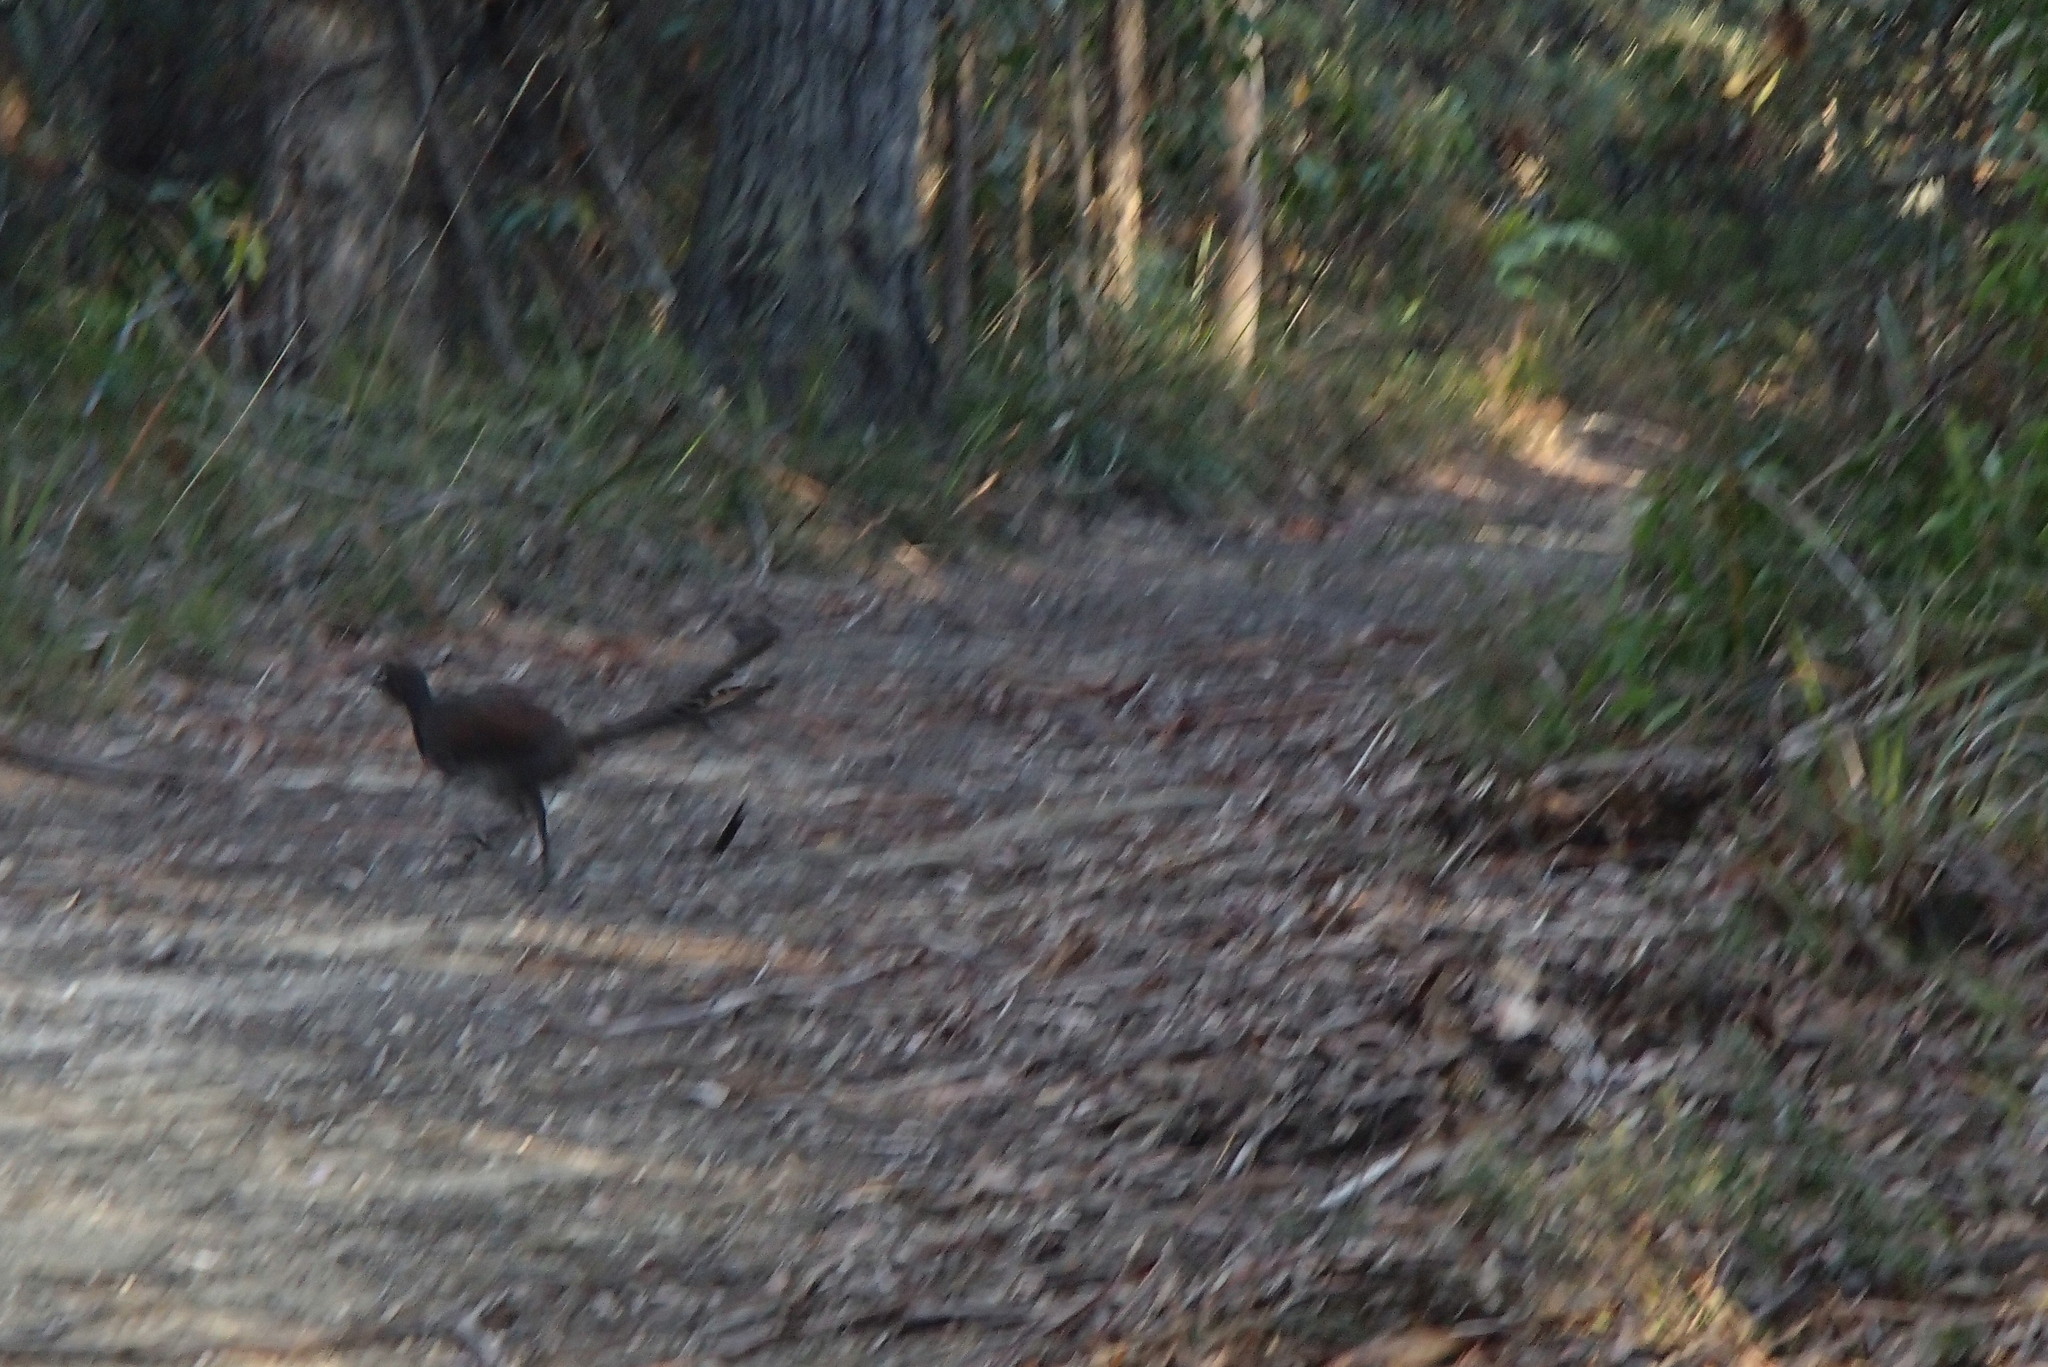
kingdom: Animalia
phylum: Chordata
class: Aves
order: Passeriformes
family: Menuridae
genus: Menura
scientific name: Menura novaehollandiae
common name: Superb lyrebird
